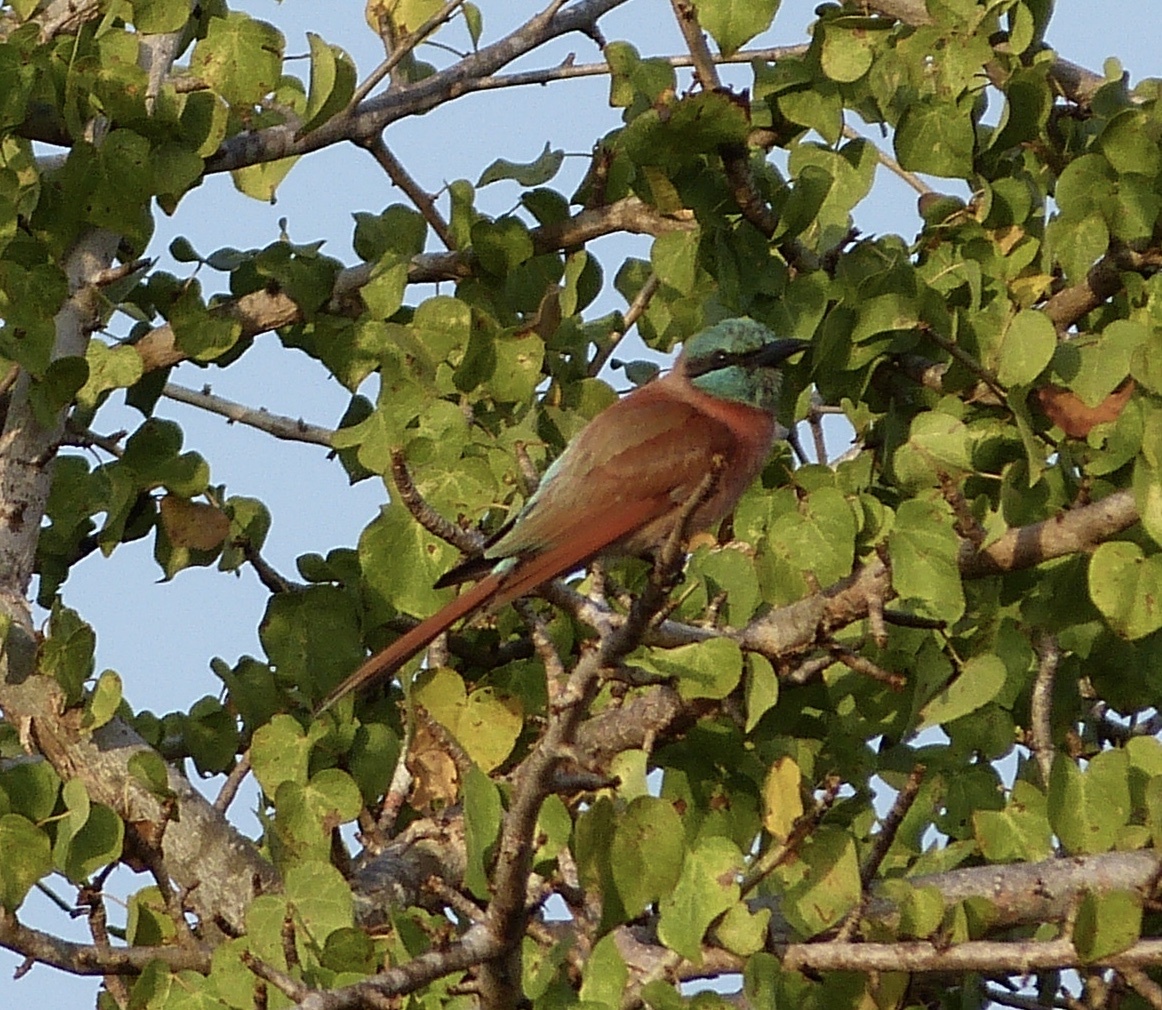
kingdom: Animalia
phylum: Chordata
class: Aves
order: Coraciiformes
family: Meropidae
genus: Merops
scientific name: Merops nubicus
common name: Northern carmine bee-eater
